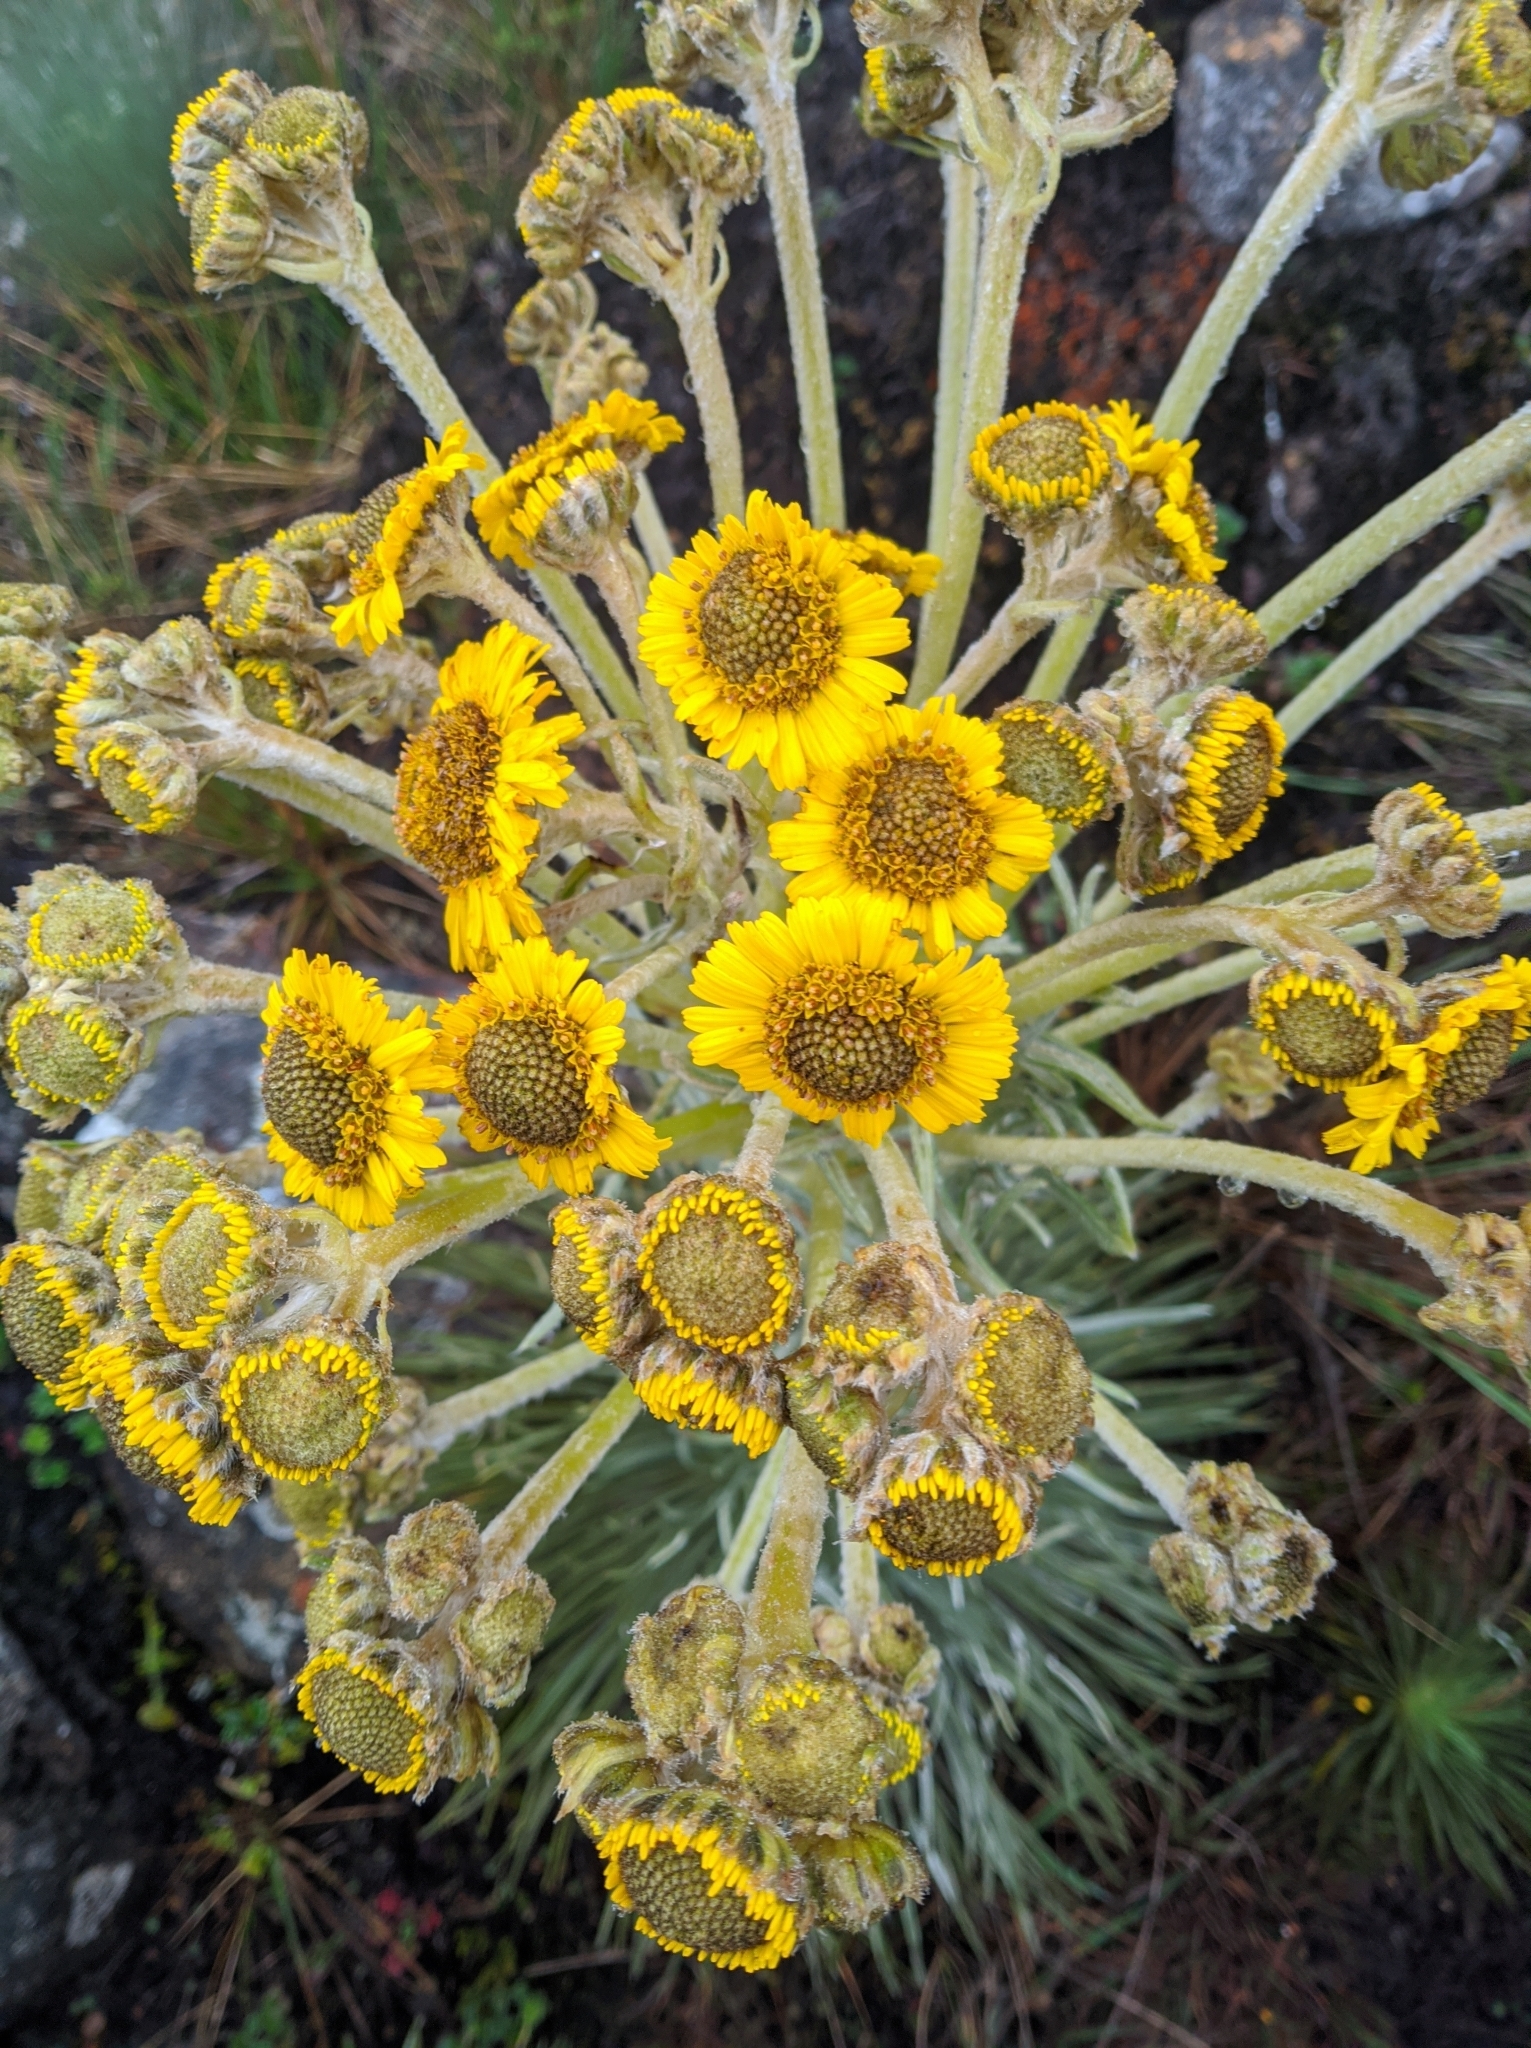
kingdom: Plantae
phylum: Tracheophyta
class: Magnoliopsida
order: Asterales
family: Asteraceae
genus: Espeletia
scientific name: Espeletia jabonensis
